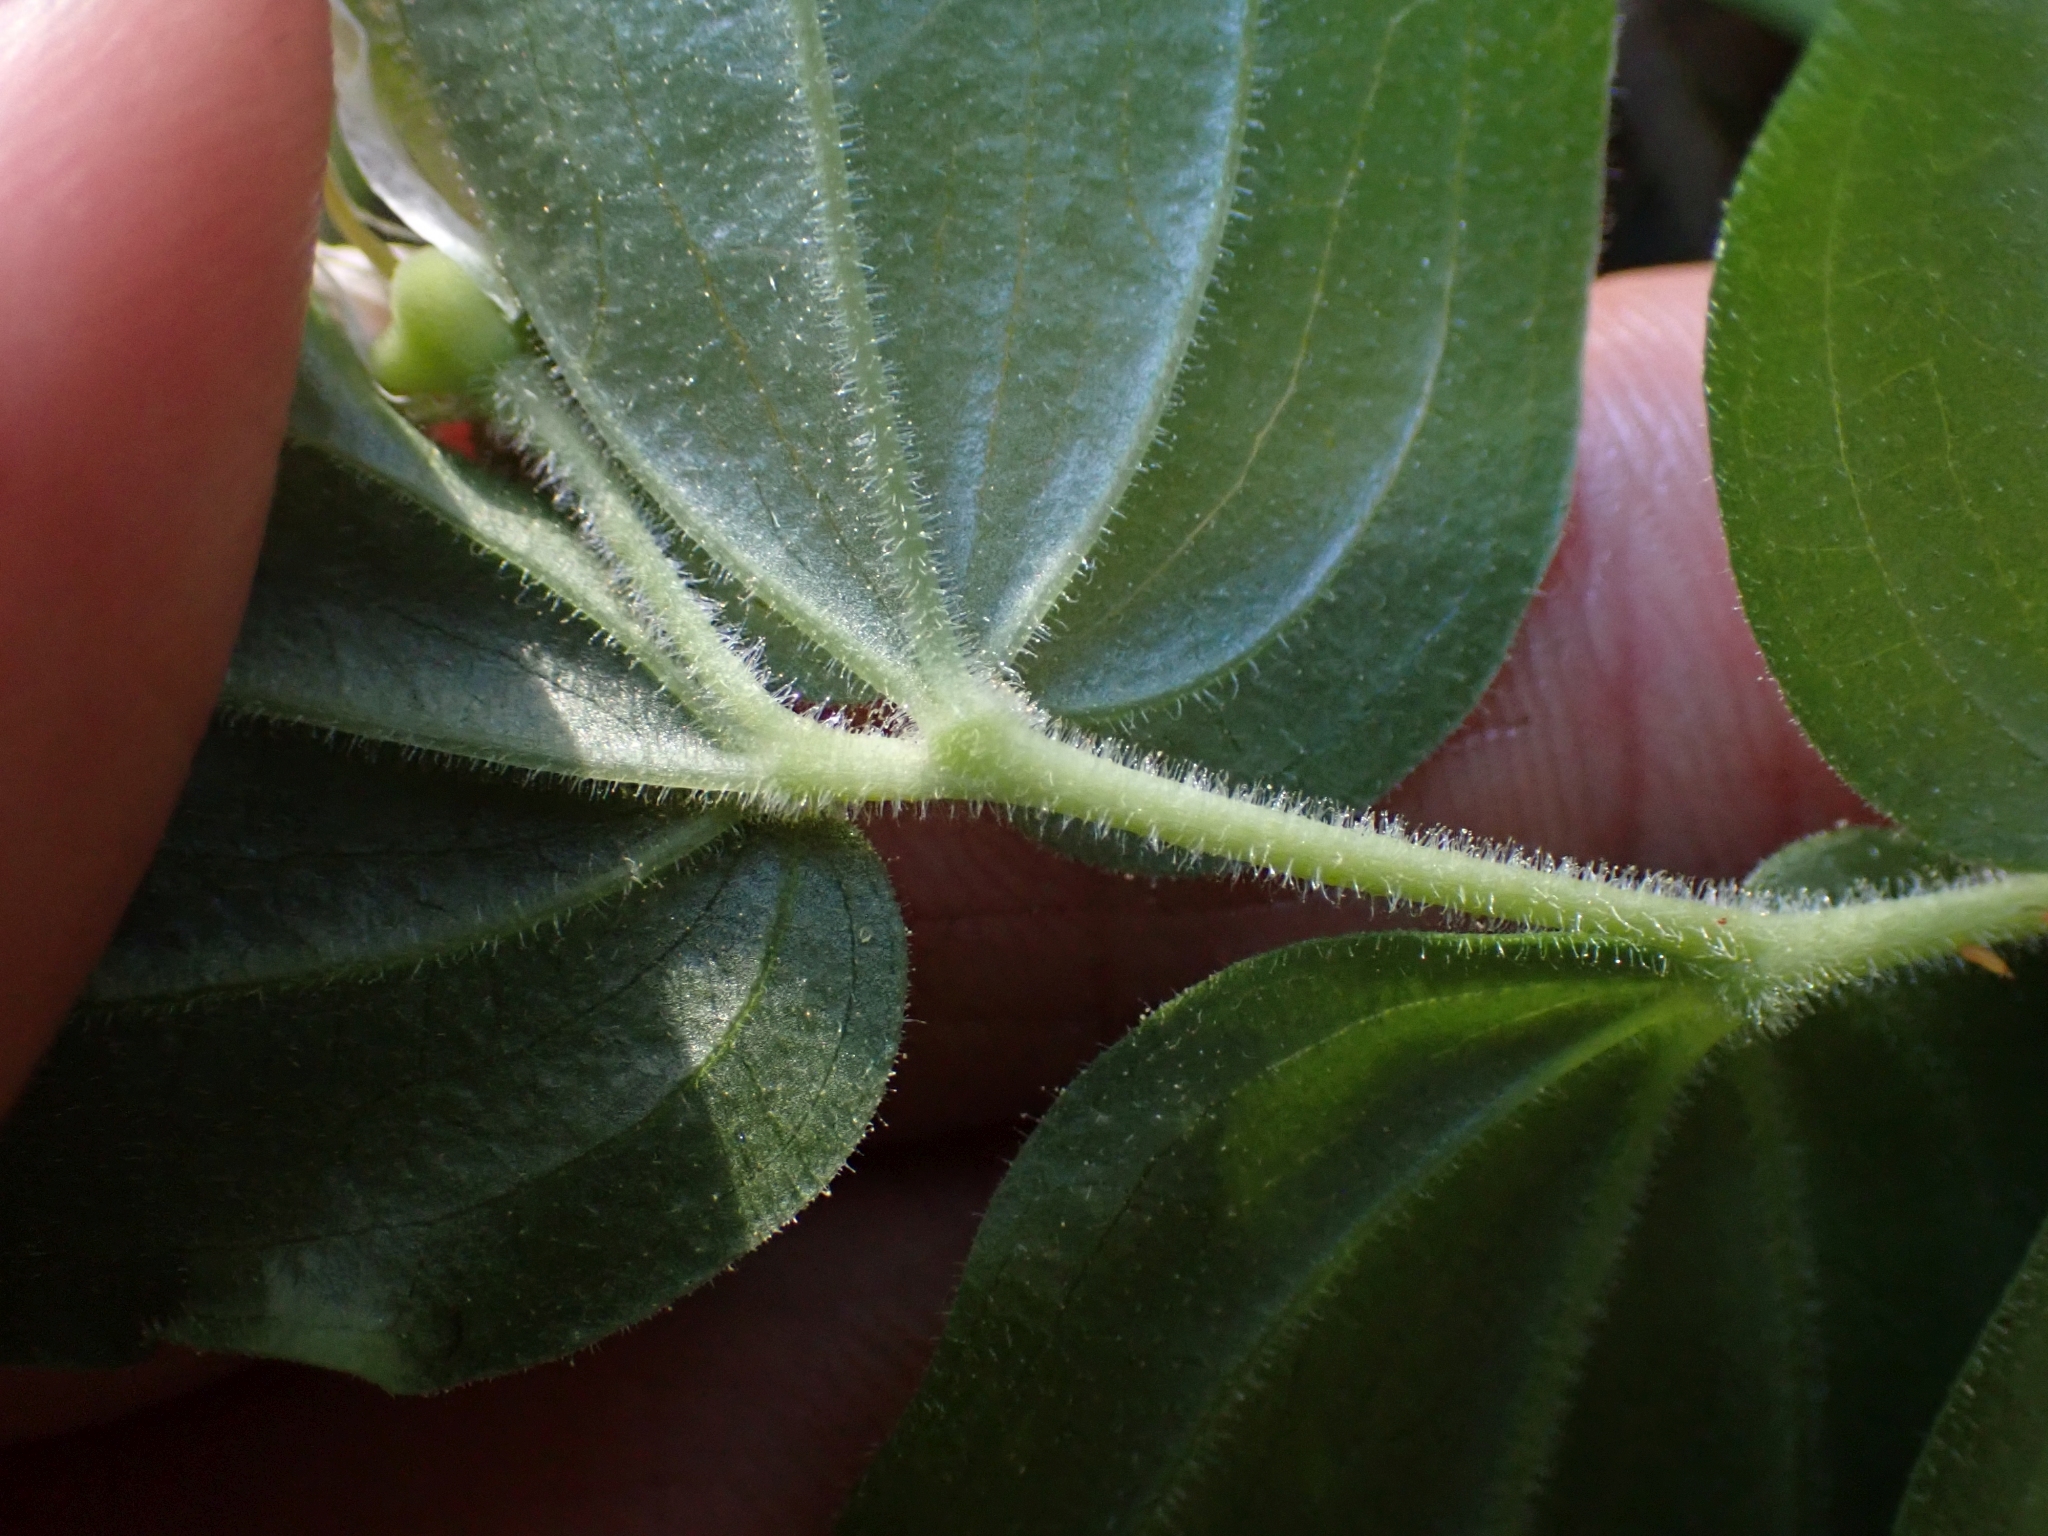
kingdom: Plantae
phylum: Tracheophyta
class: Liliopsida
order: Liliales
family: Liliaceae
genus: Prosartes
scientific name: Prosartes trachycarpa
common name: Rough-fruit fairy-bells
